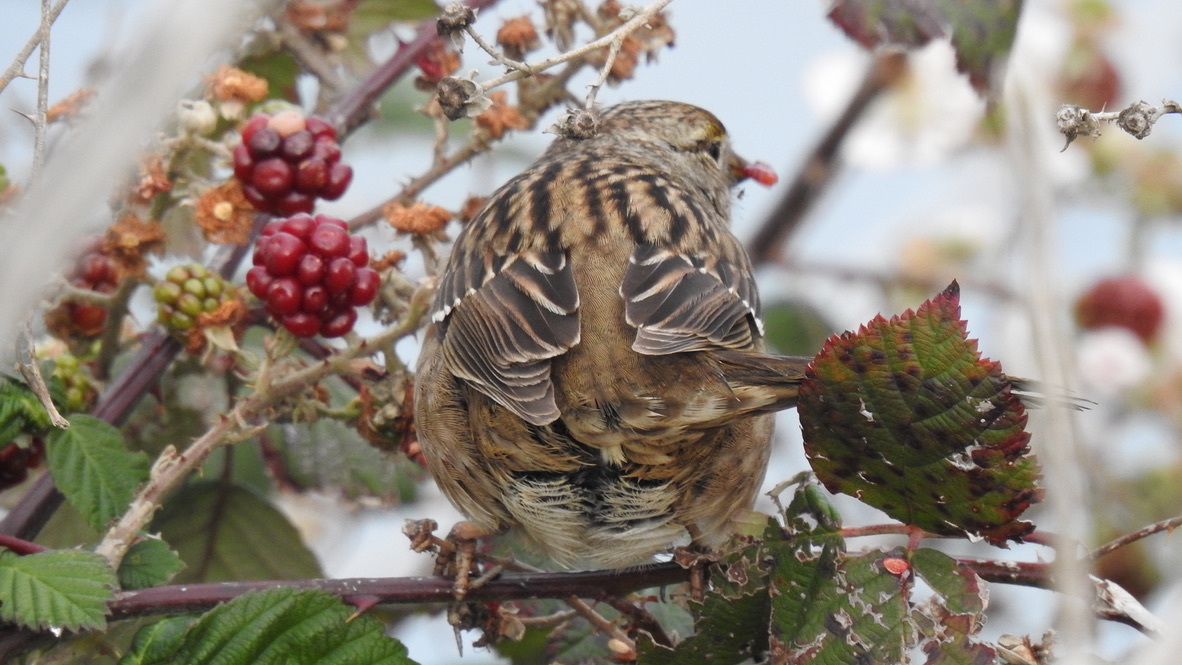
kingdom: Animalia
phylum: Chordata
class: Aves
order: Passeriformes
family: Passerellidae
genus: Zonotrichia
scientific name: Zonotrichia atricapilla
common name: Golden-crowned sparrow
